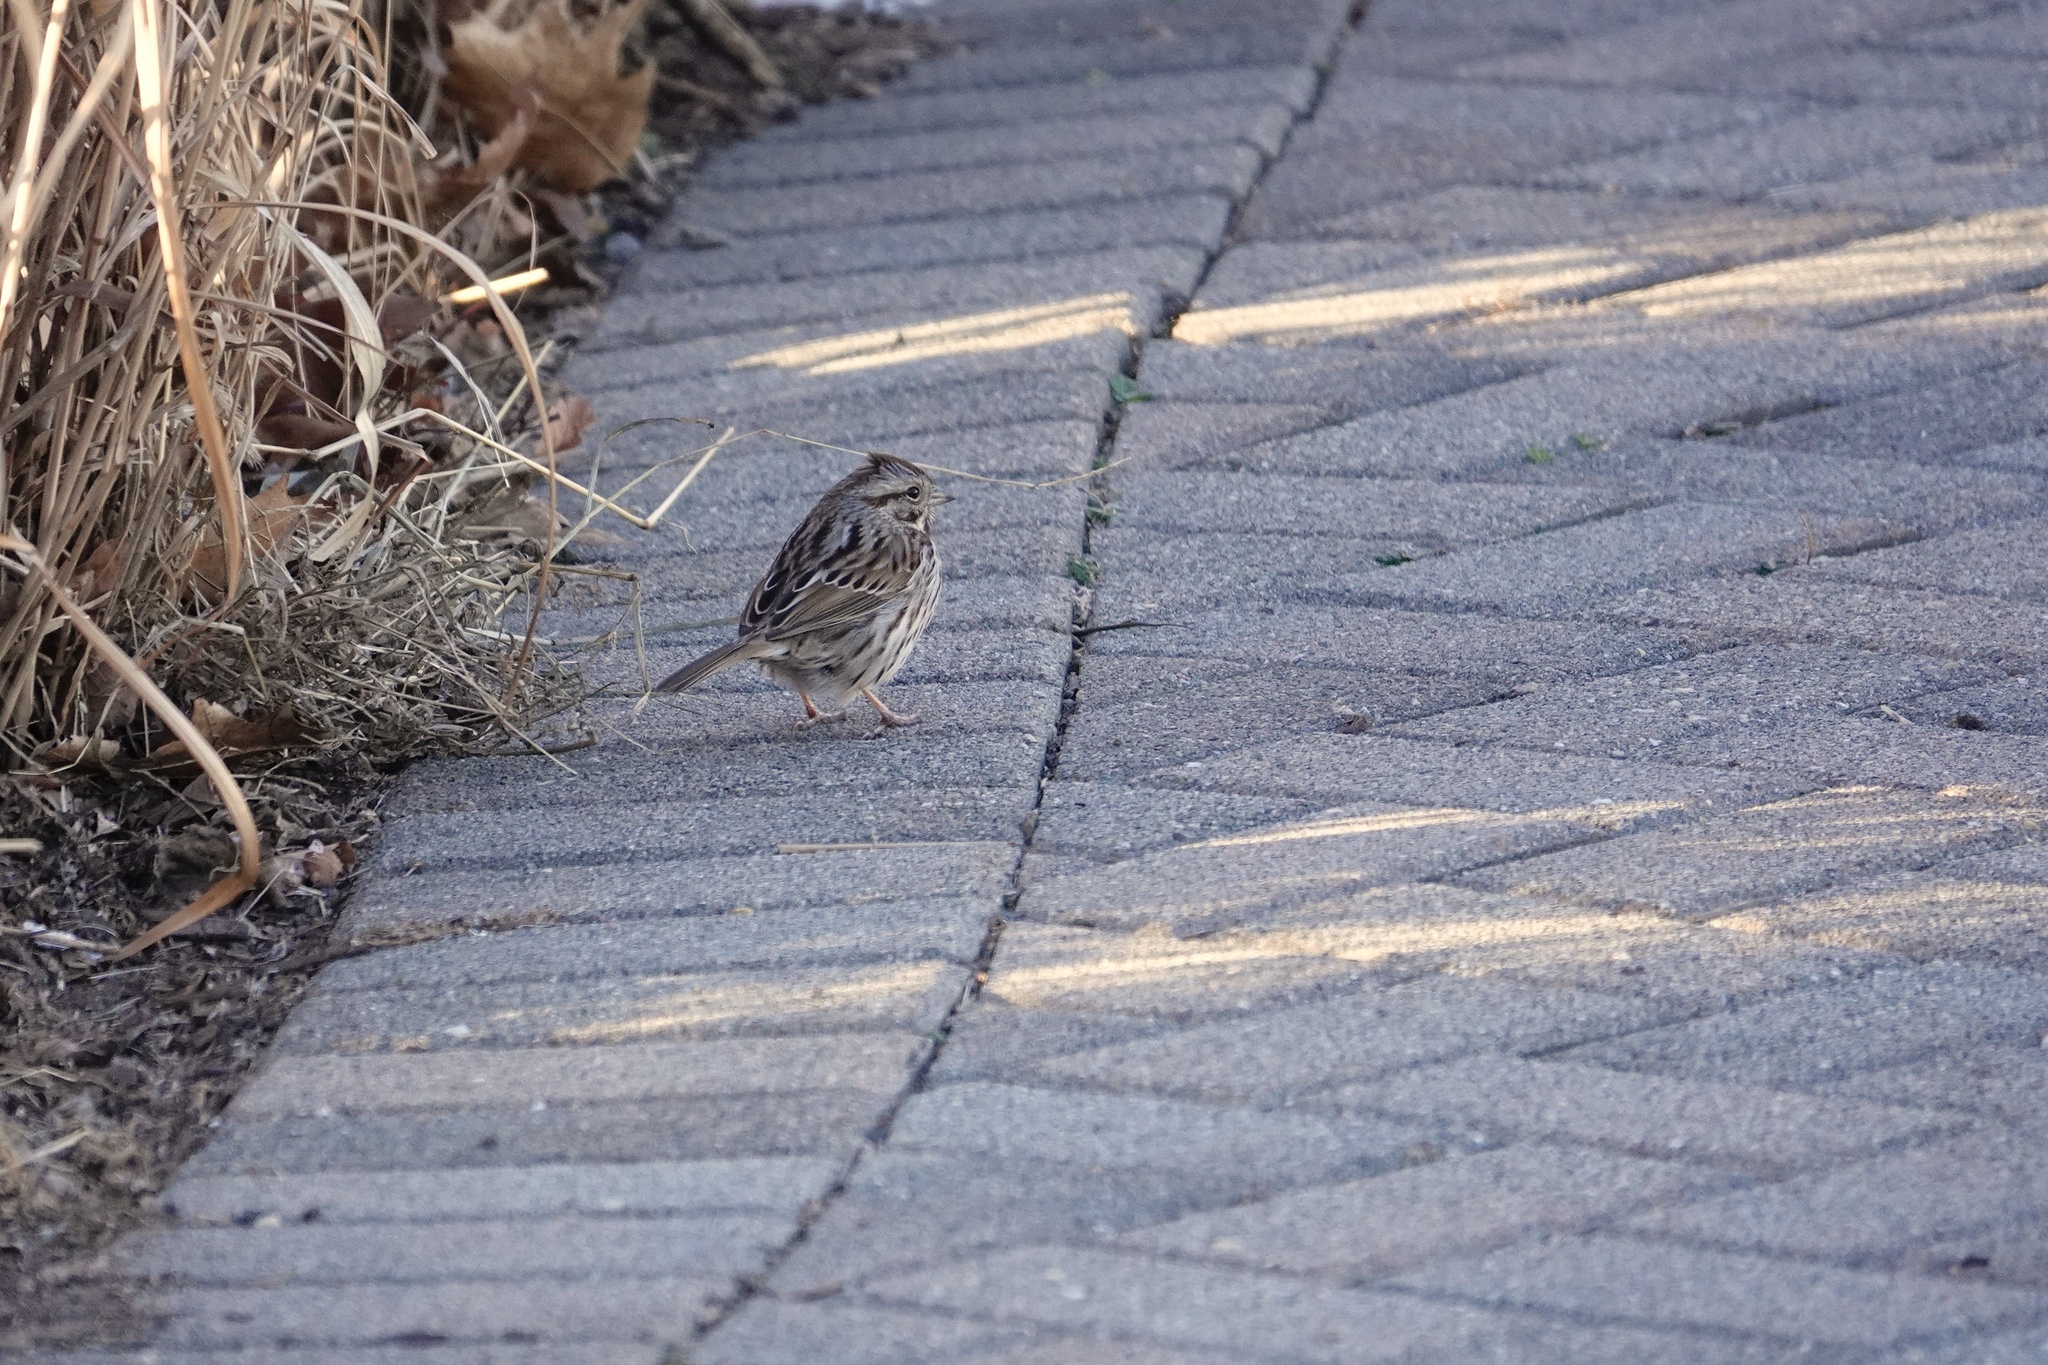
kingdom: Animalia
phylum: Chordata
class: Aves
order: Passeriformes
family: Passerellidae
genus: Melospiza
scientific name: Melospiza melodia
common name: Song sparrow
